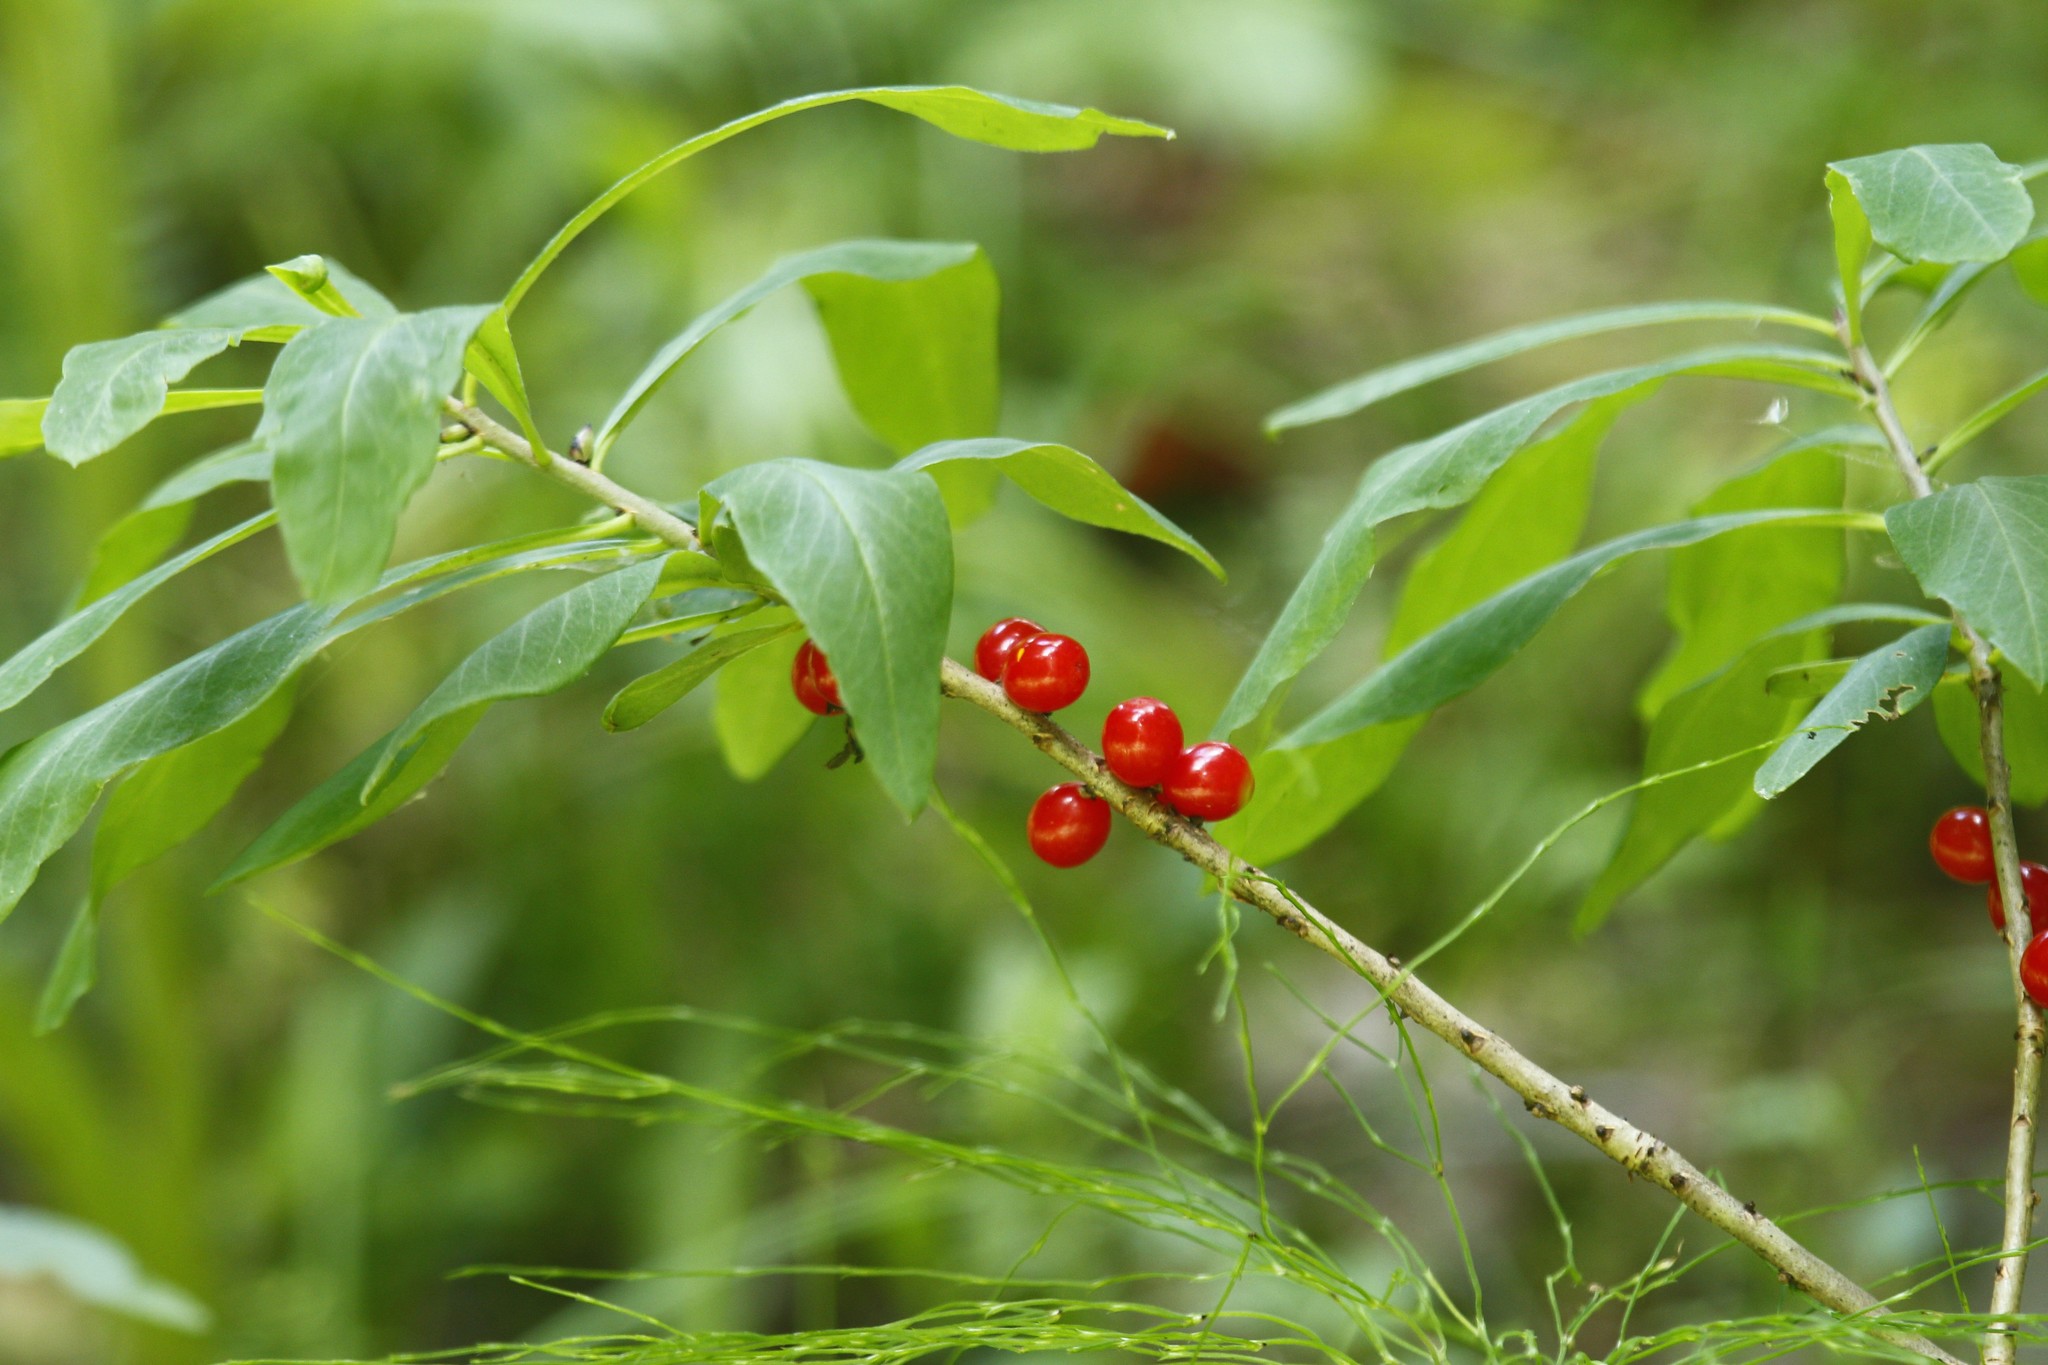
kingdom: Plantae
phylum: Tracheophyta
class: Magnoliopsida
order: Malvales
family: Thymelaeaceae
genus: Daphne
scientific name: Daphne mezereum
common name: Mezereon
